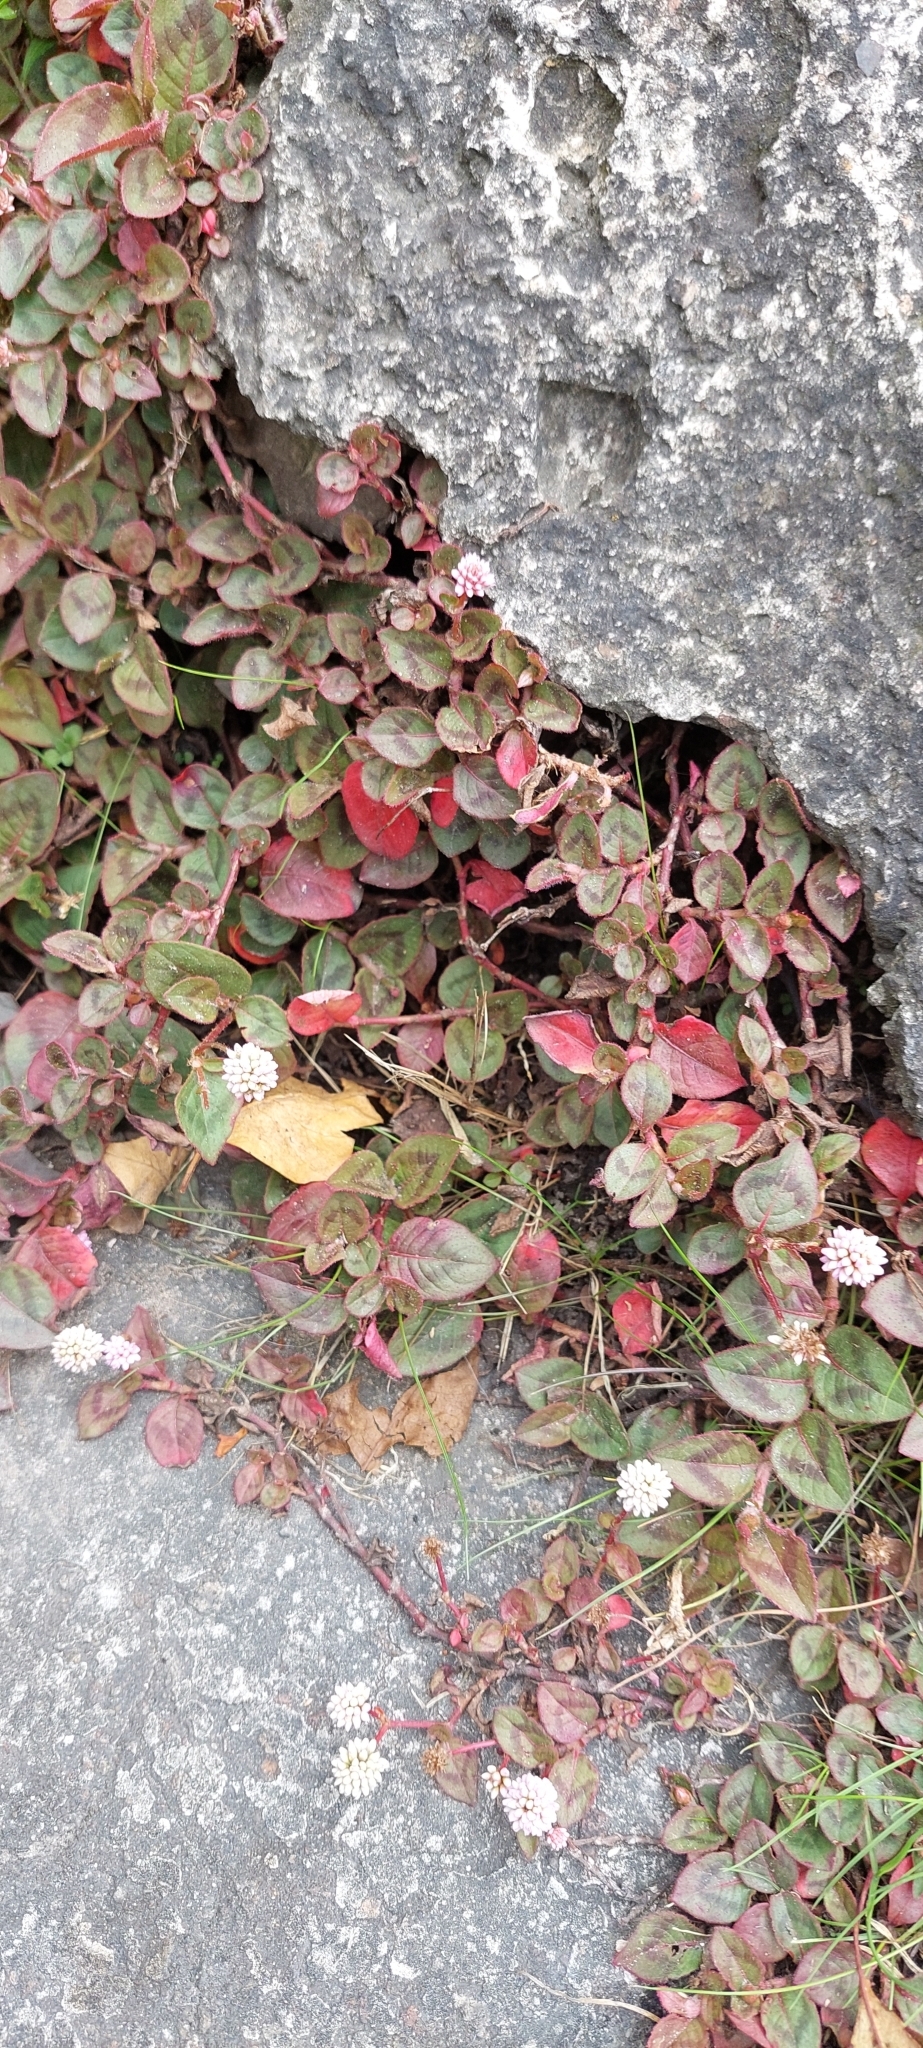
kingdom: Plantae
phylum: Tracheophyta
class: Magnoliopsida
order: Caryophyllales
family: Polygonaceae
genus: Persicaria
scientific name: Persicaria capitata
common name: Pinkhead smartweed
